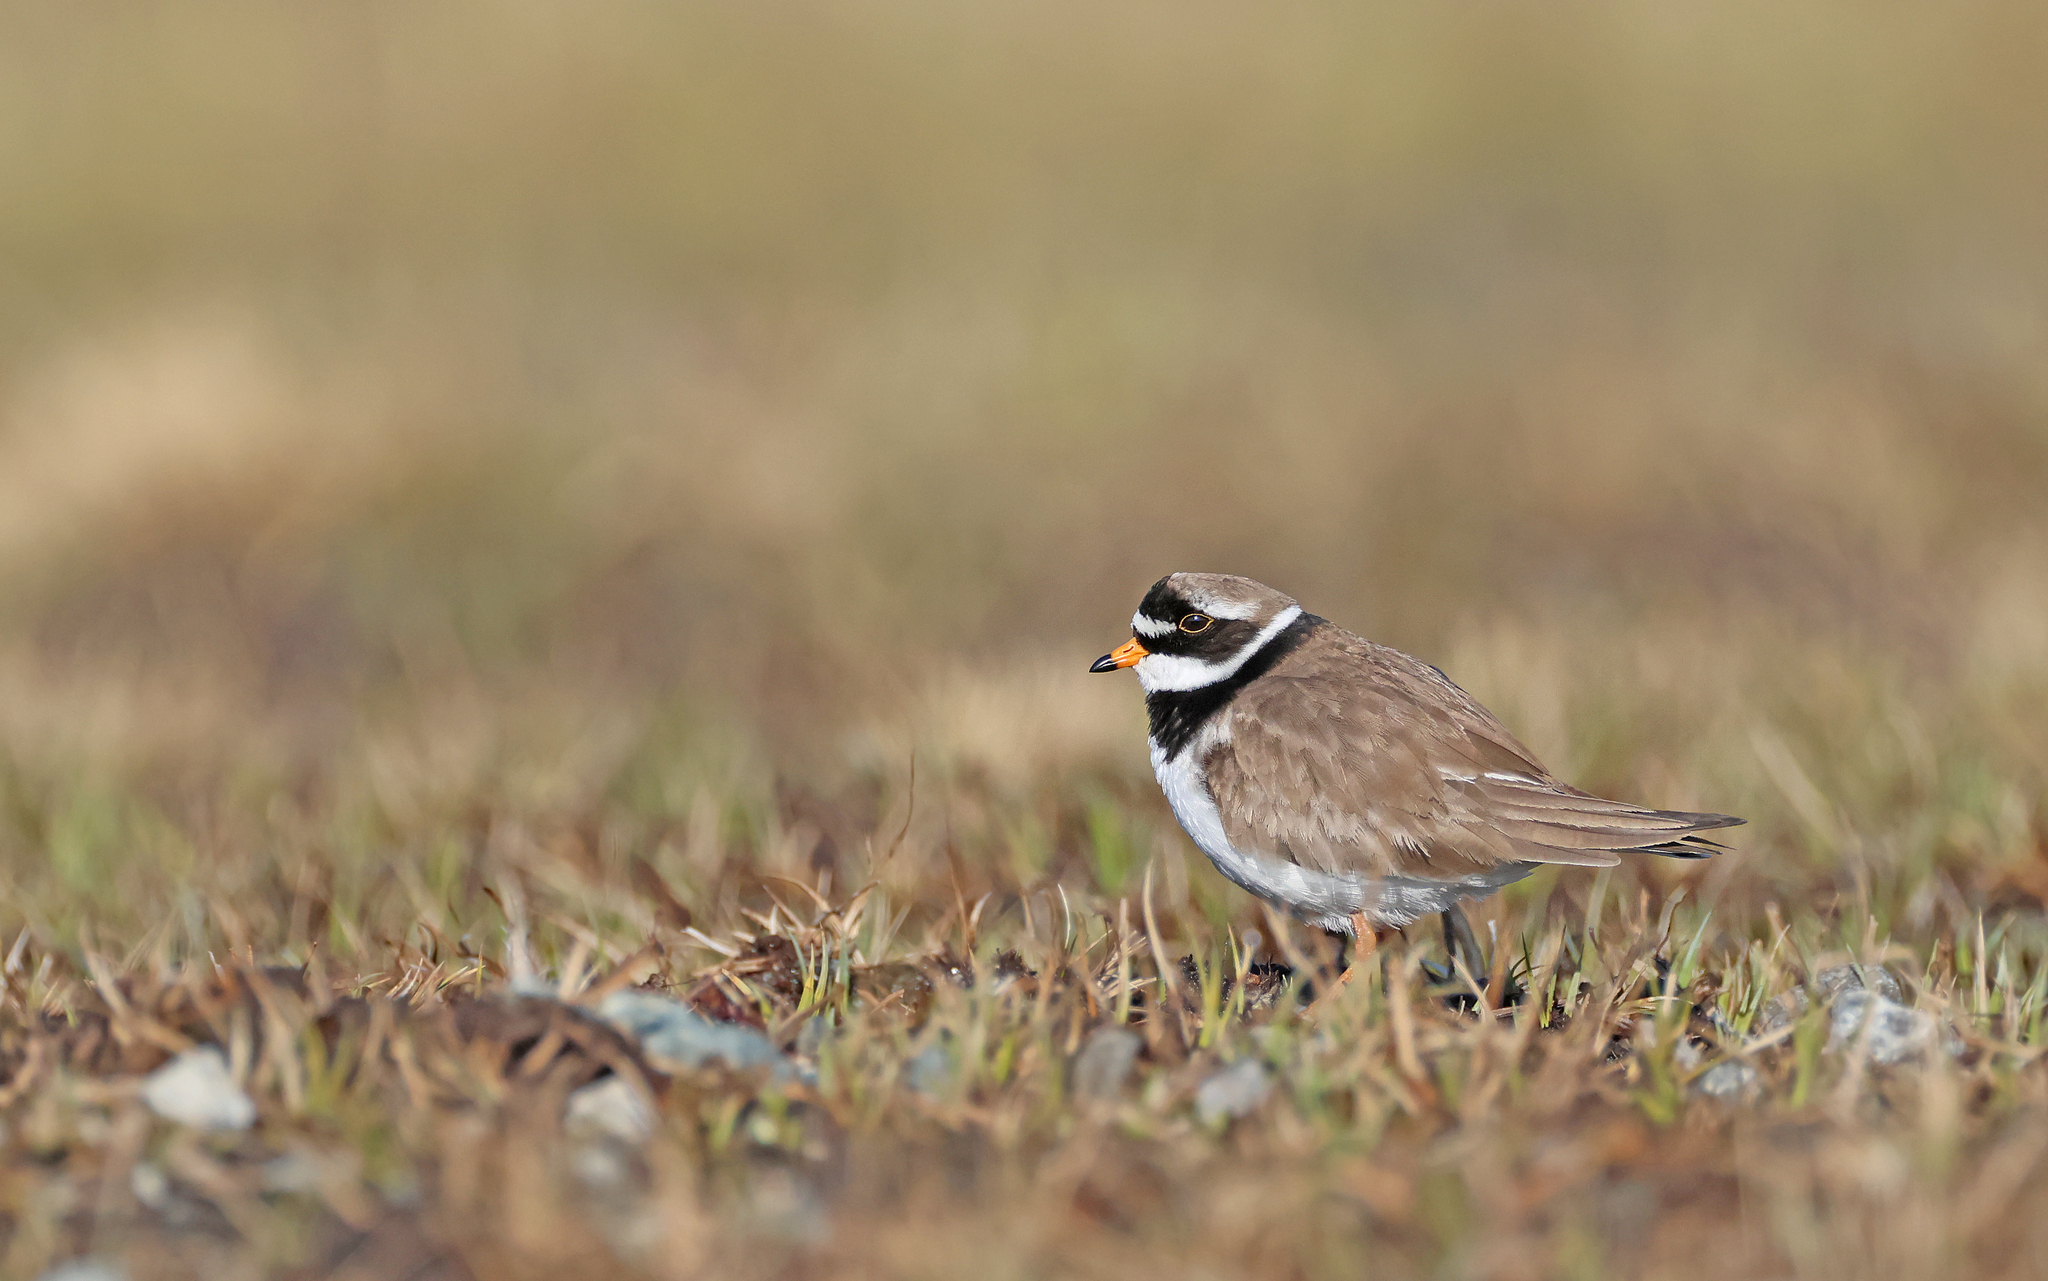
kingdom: Animalia
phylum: Chordata
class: Aves
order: Charadriiformes
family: Charadriidae
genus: Charadrius
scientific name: Charadrius hiaticula
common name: Common ringed plover
